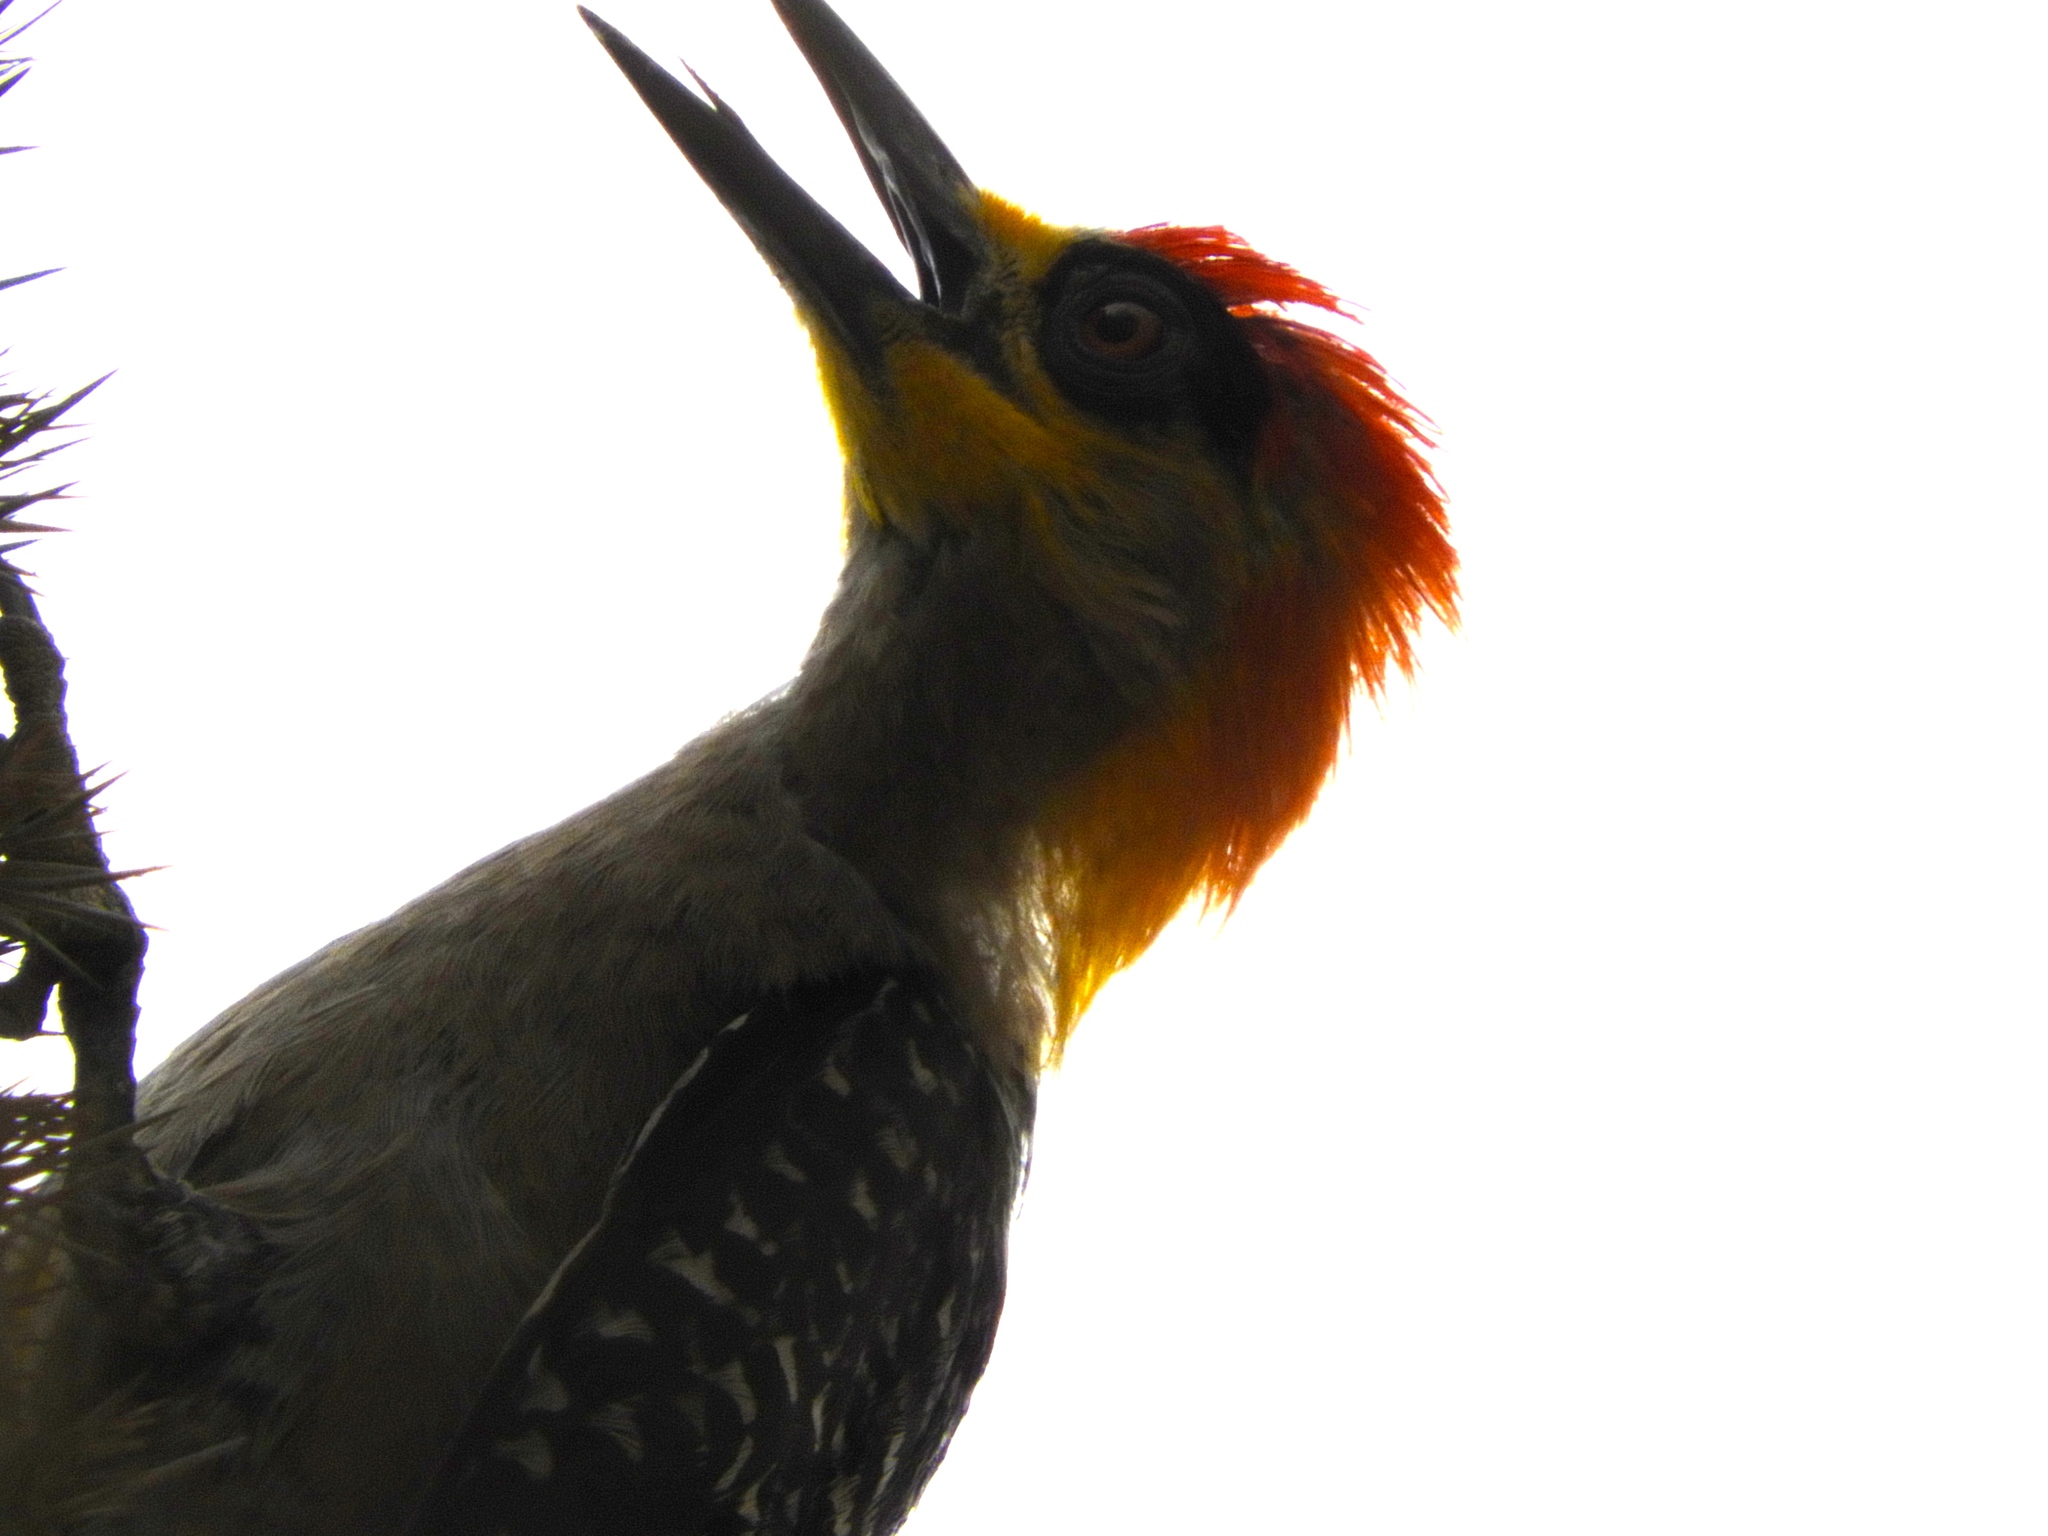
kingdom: Animalia
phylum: Chordata
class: Aves
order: Piciformes
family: Picidae
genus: Melanerpes
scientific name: Melanerpes chrysogenys
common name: Golden-cheeked woodpecker
